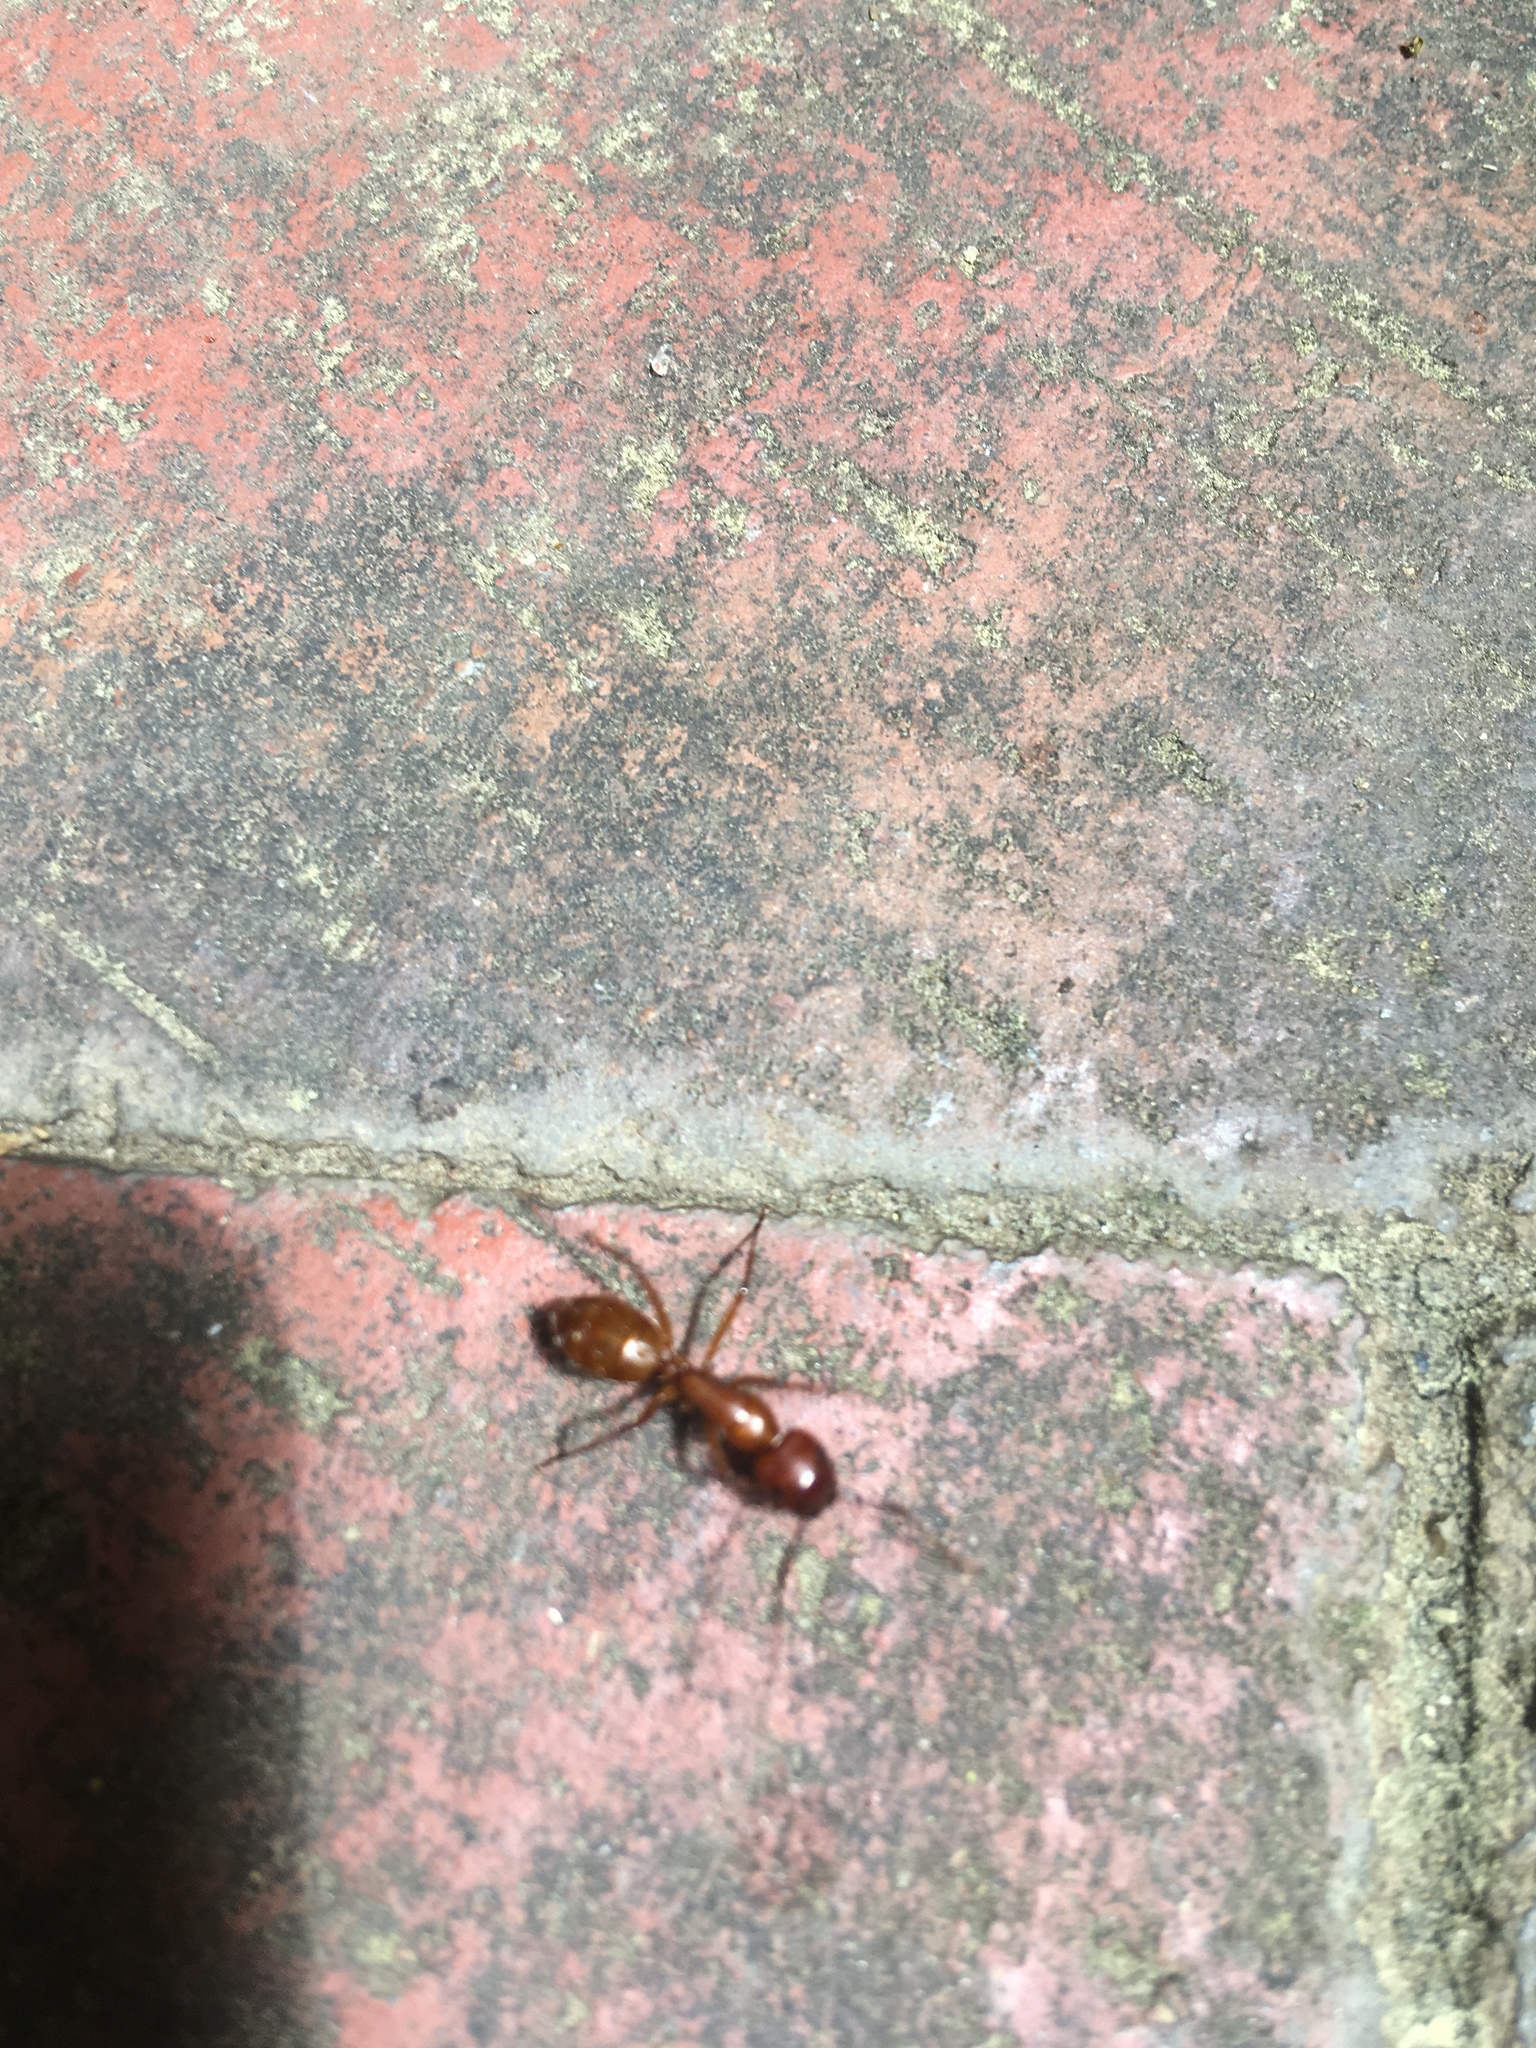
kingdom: Animalia
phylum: Arthropoda
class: Insecta
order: Hymenoptera
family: Formicidae
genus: Camponotus
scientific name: Camponotus castaneus
